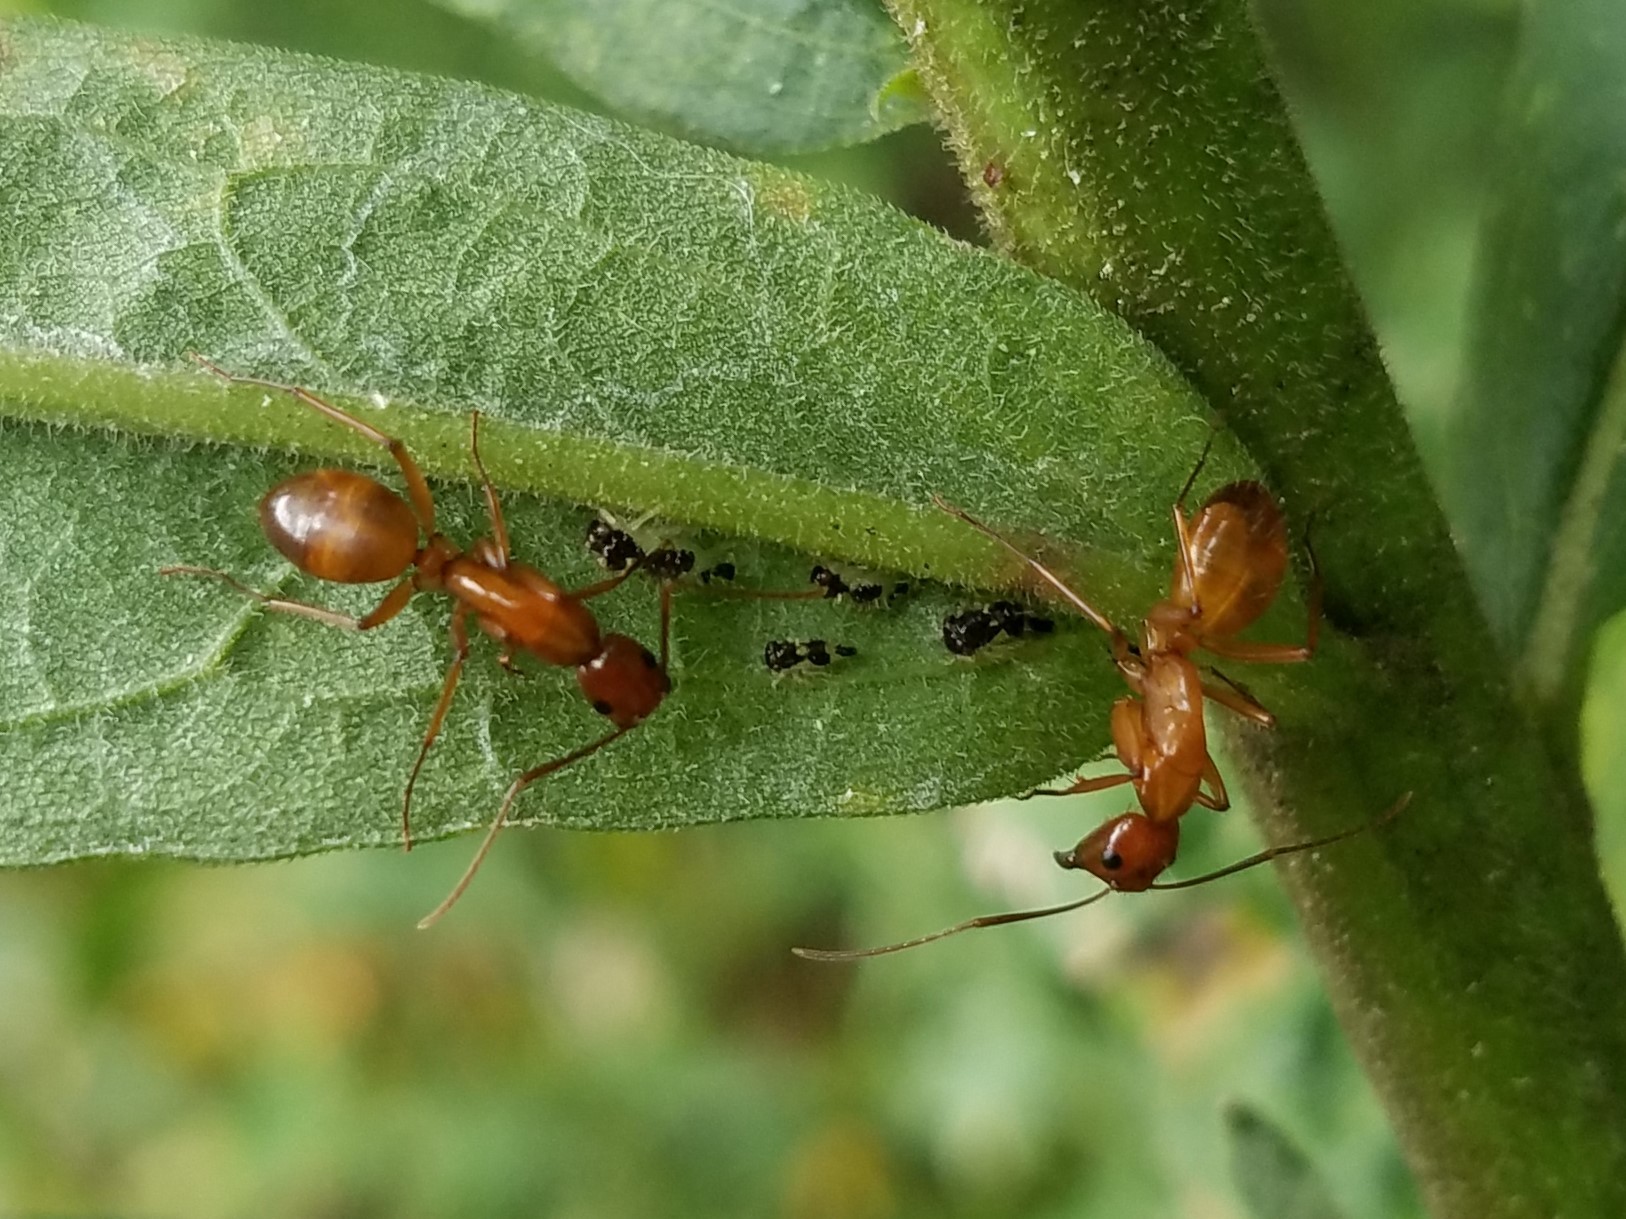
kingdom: Animalia
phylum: Arthropoda
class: Insecta
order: Hymenoptera
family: Formicidae
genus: Camponotus
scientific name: Camponotus castaneus
